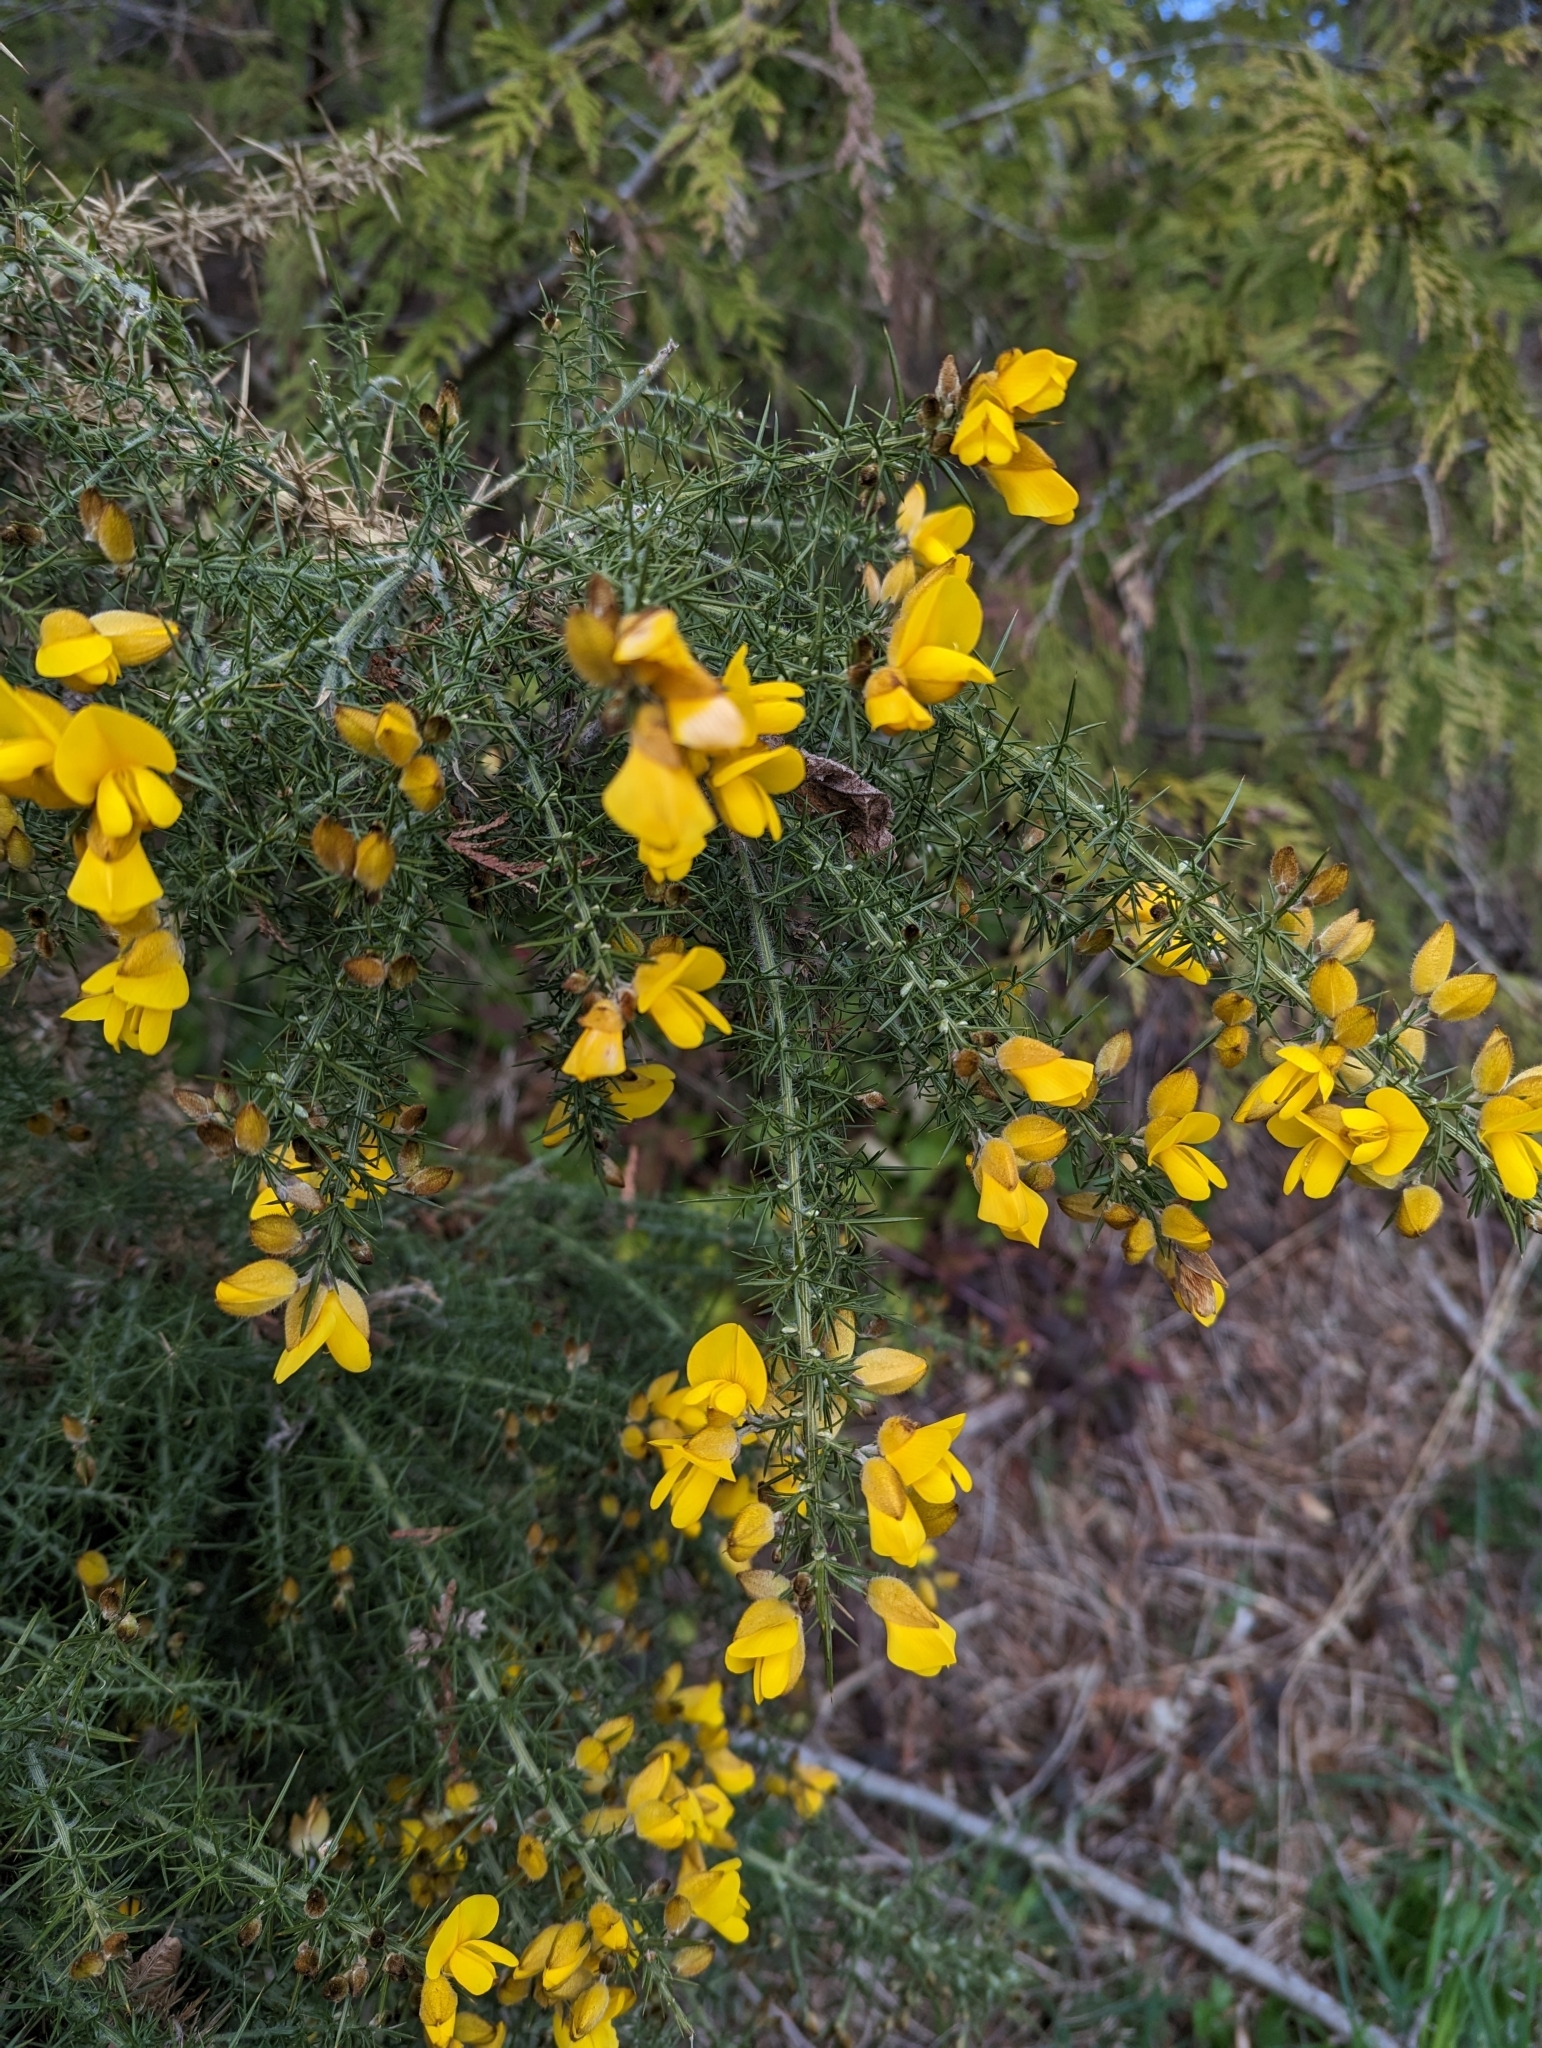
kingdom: Plantae
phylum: Tracheophyta
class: Magnoliopsida
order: Fabales
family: Fabaceae
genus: Ulex
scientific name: Ulex europaeus
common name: Common gorse
